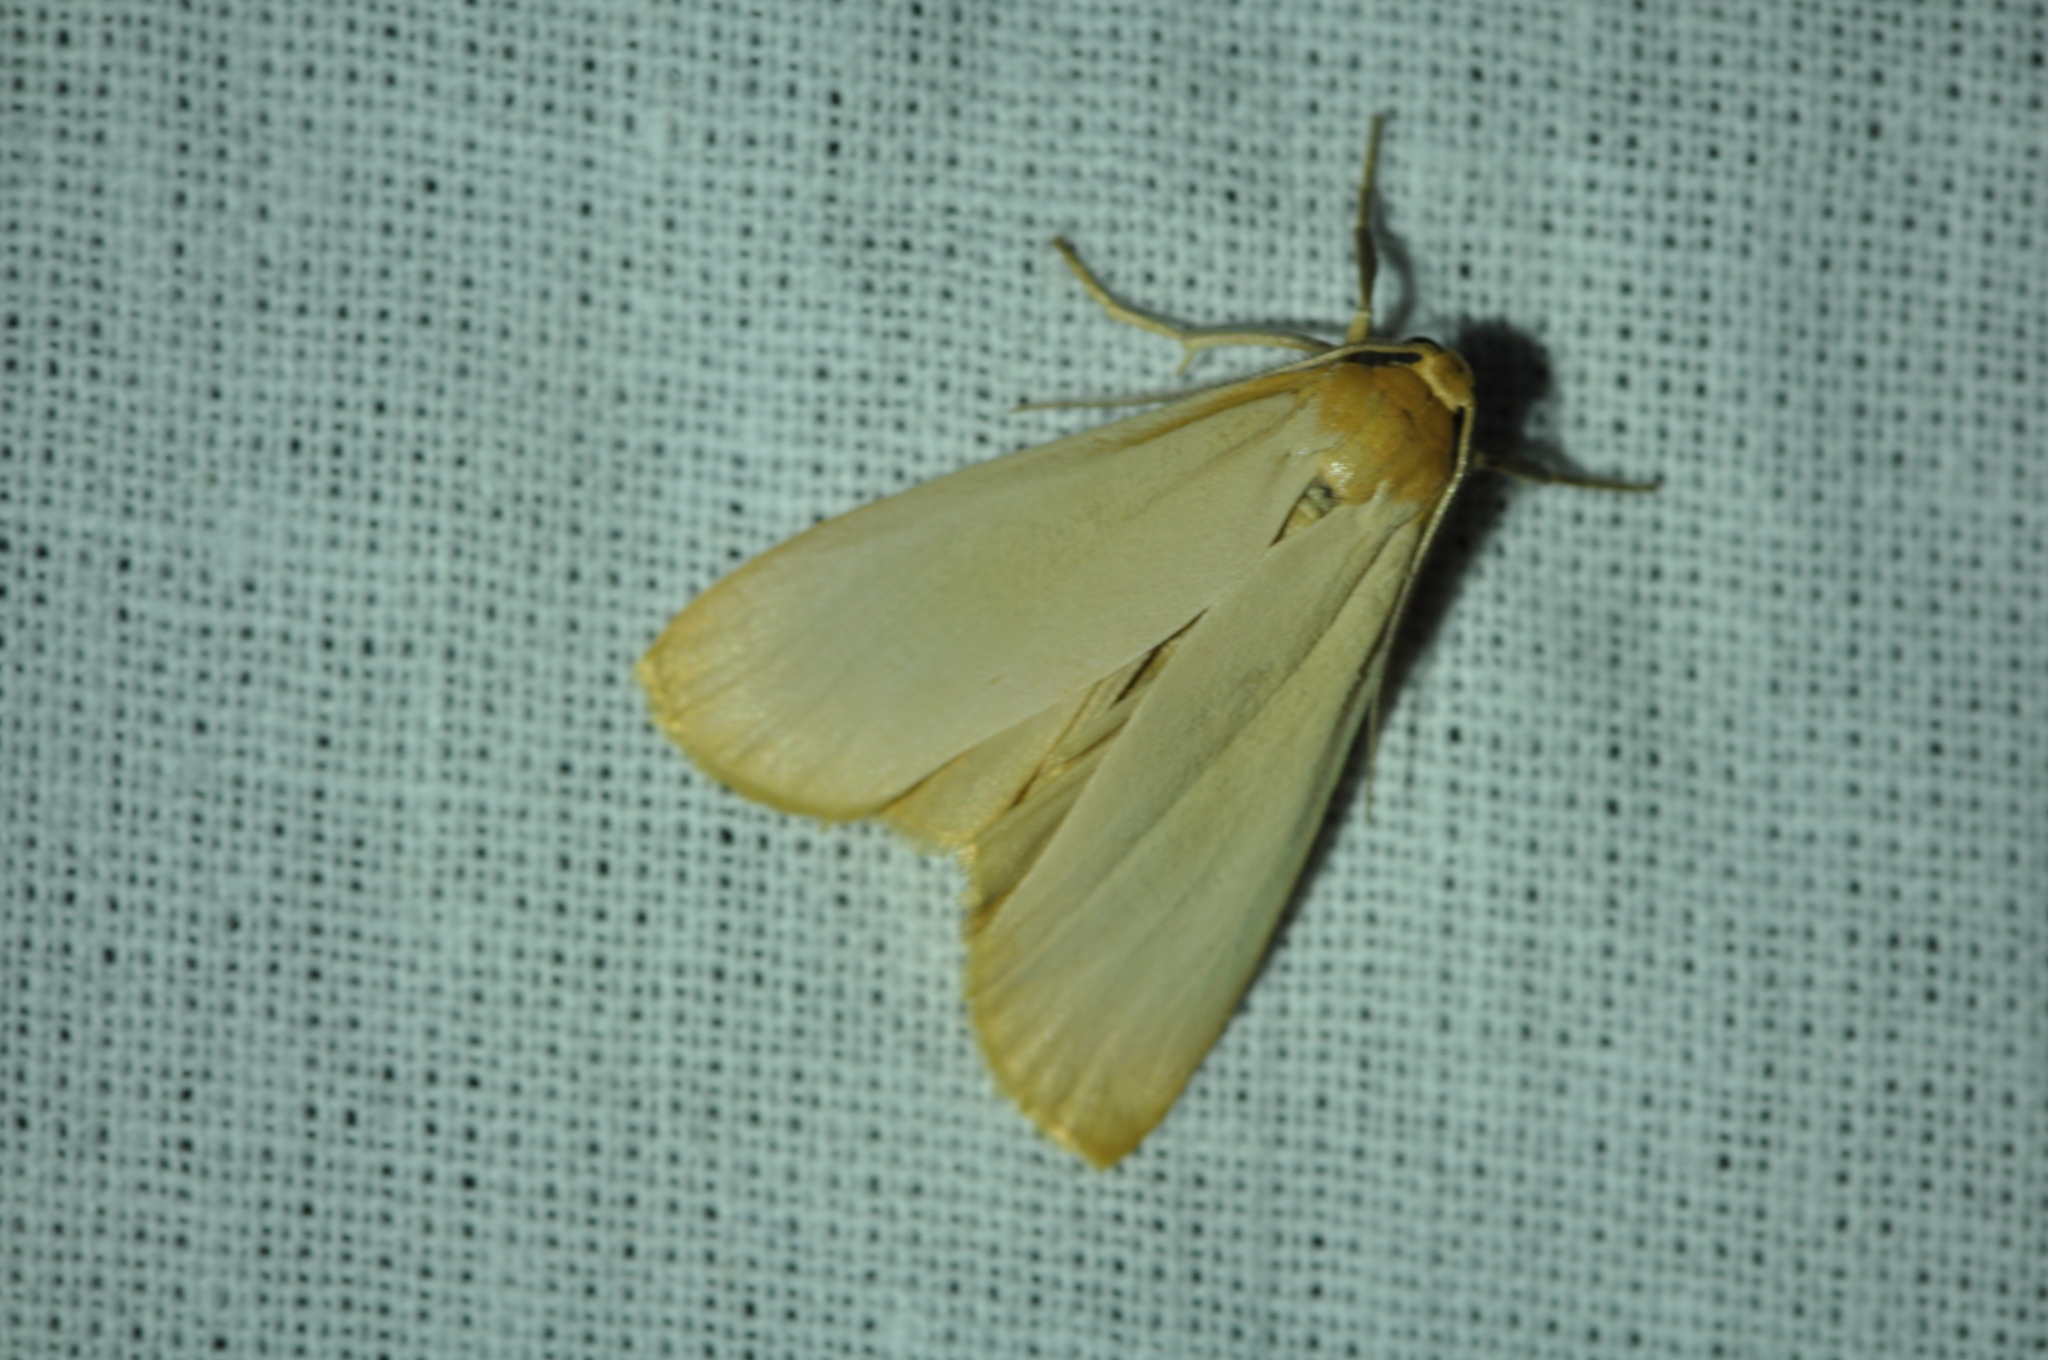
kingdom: Animalia
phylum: Arthropoda
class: Insecta
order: Lepidoptera
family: Erebidae
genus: Katha
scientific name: Katha depressa
